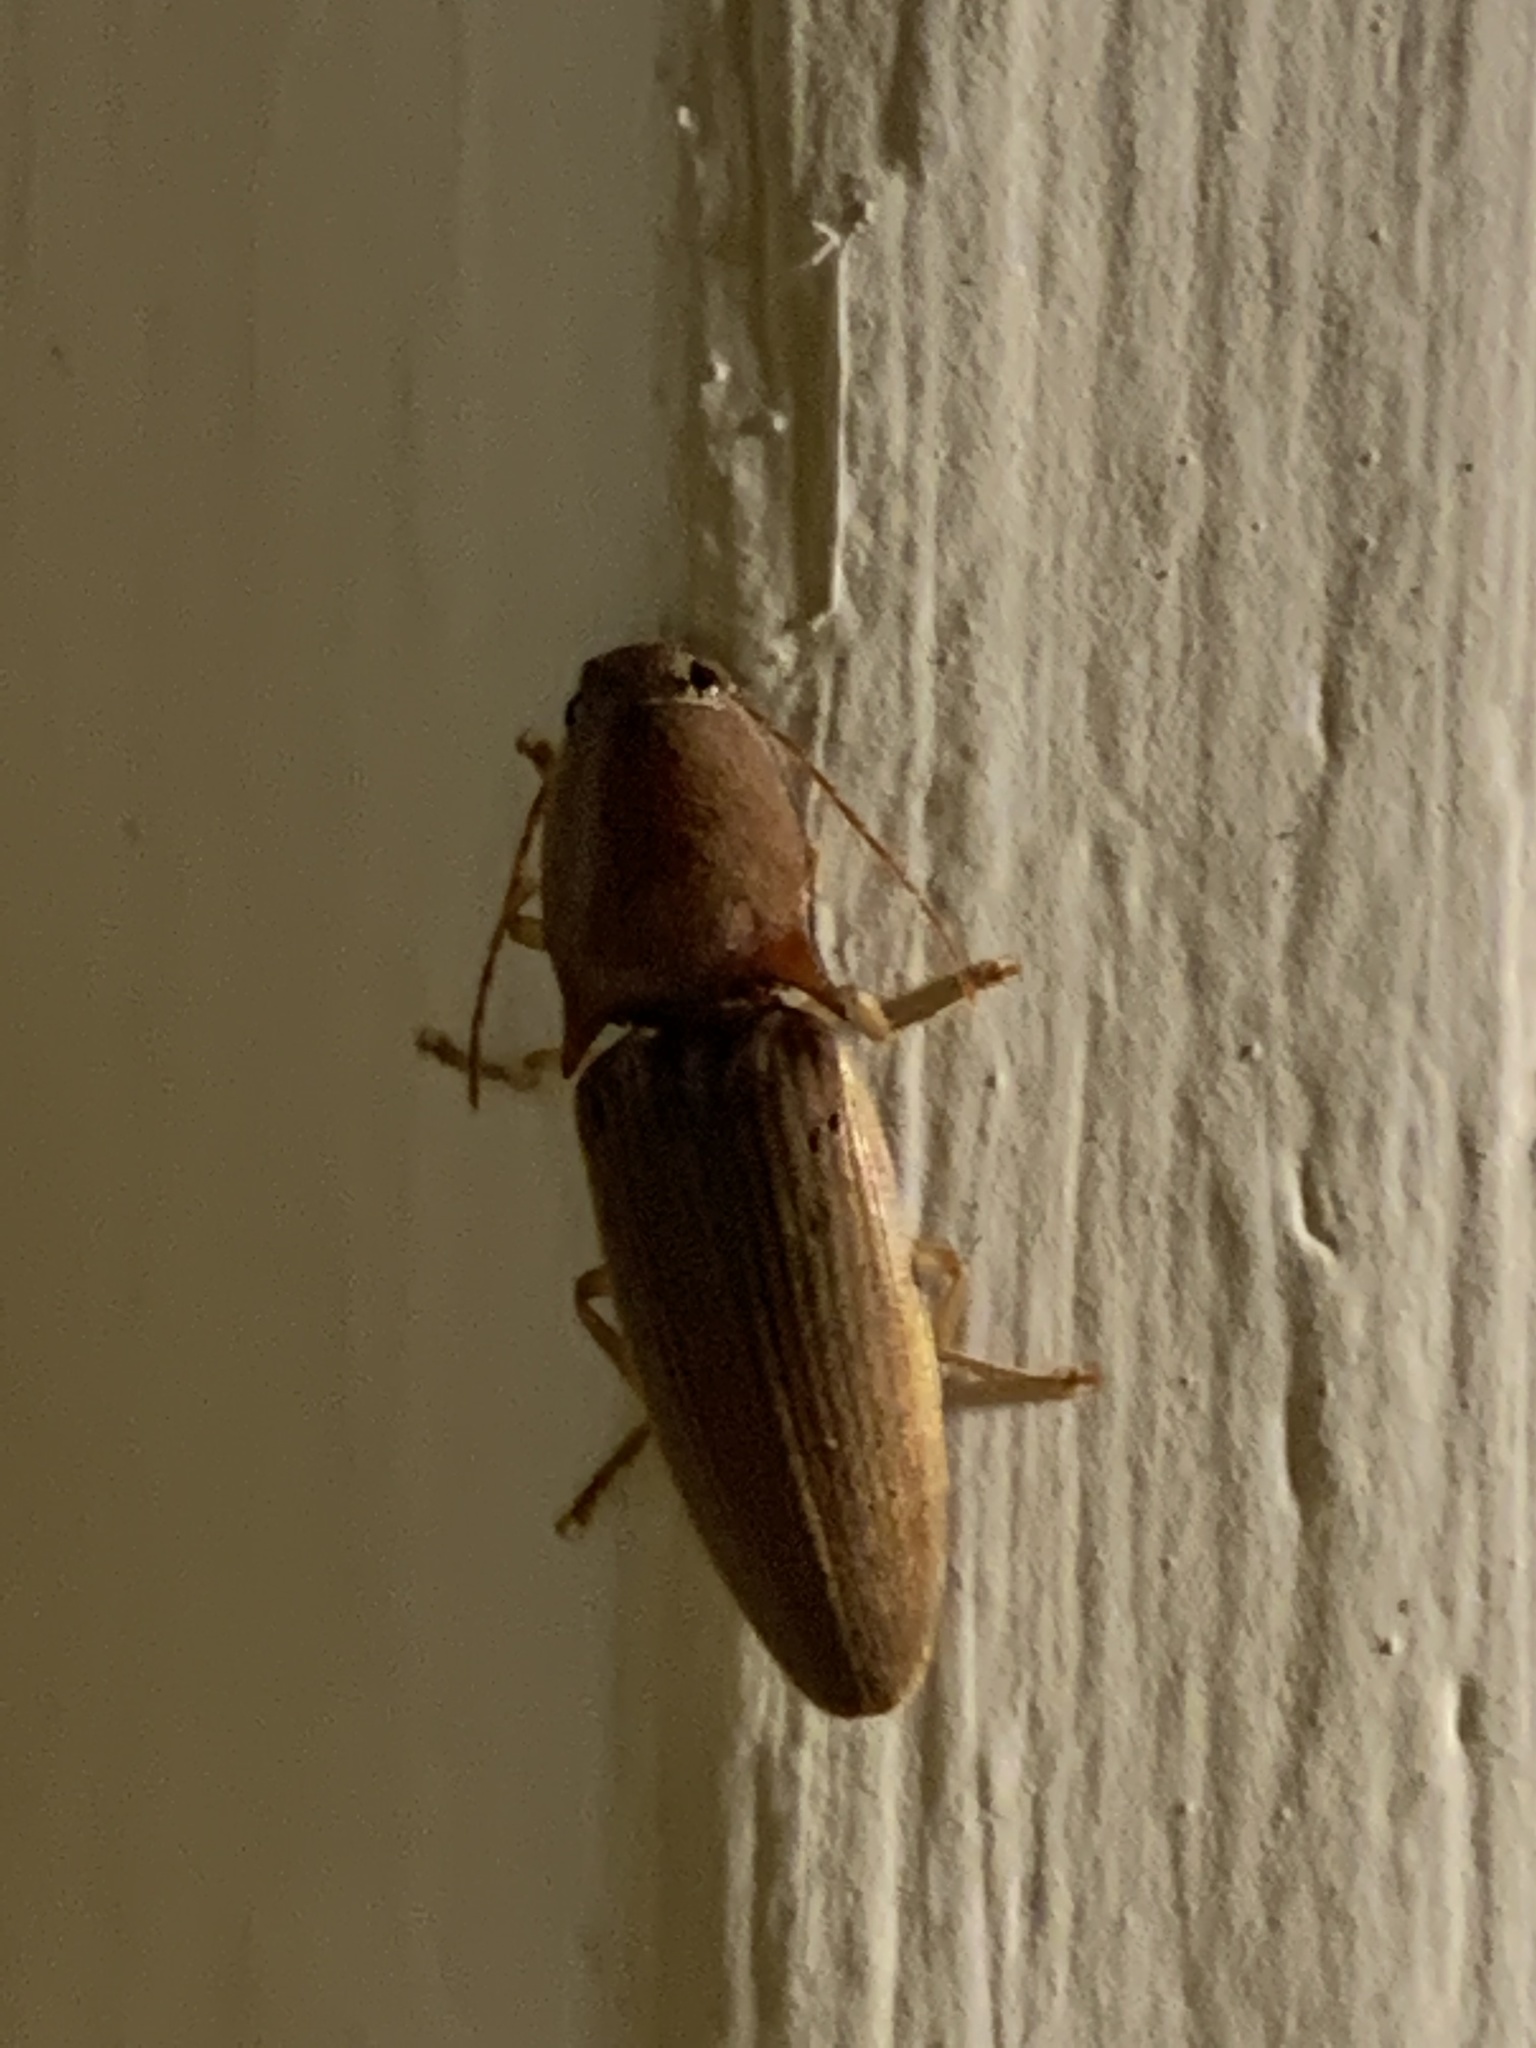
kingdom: Animalia
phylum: Arthropoda
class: Insecta
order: Coleoptera
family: Elateridae
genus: Monocrepidius
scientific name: Monocrepidius lividus
